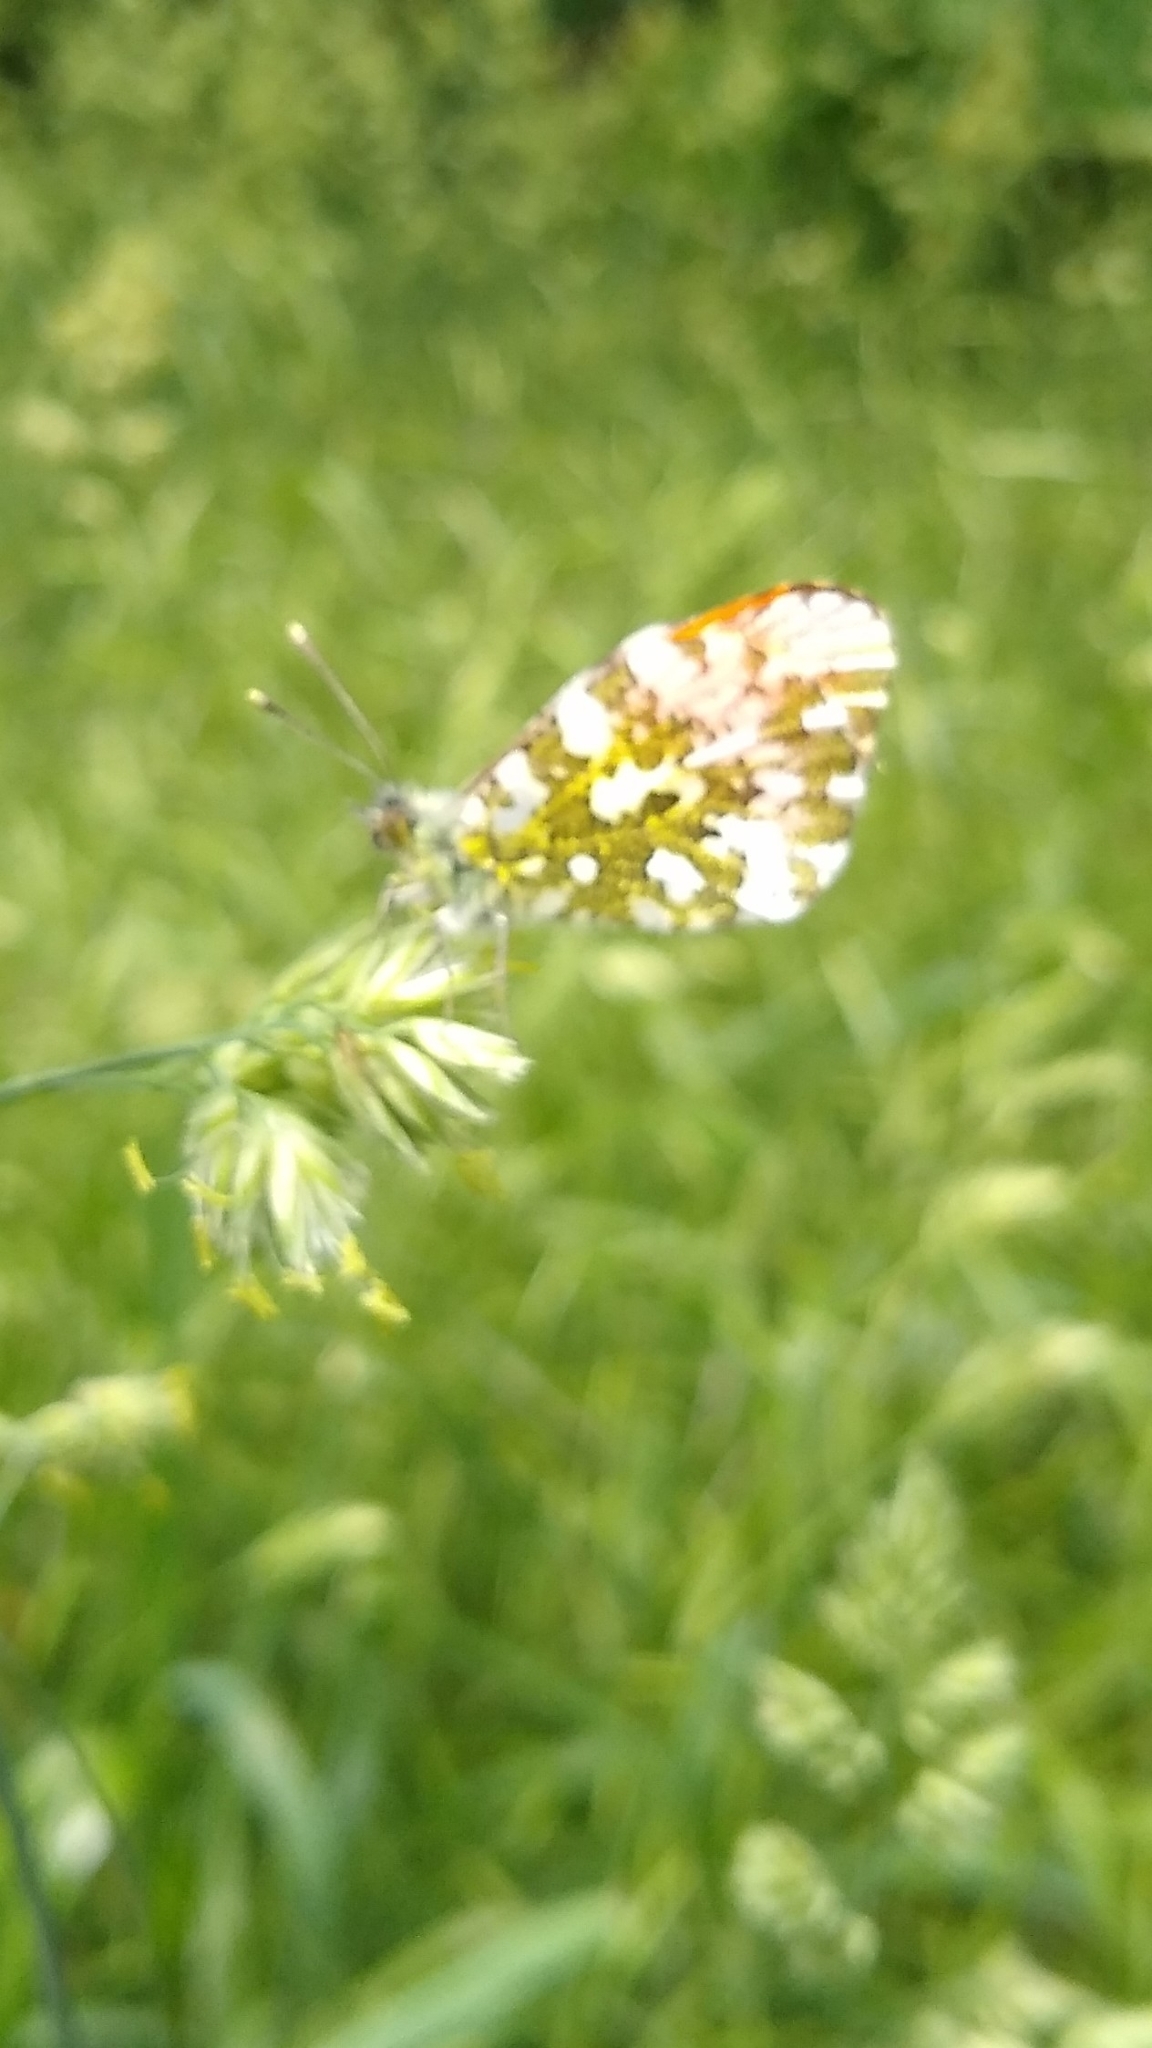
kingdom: Animalia
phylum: Arthropoda
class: Insecta
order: Lepidoptera
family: Pieridae
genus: Anthocharis
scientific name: Anthocharis cardamines
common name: Orange-tip
